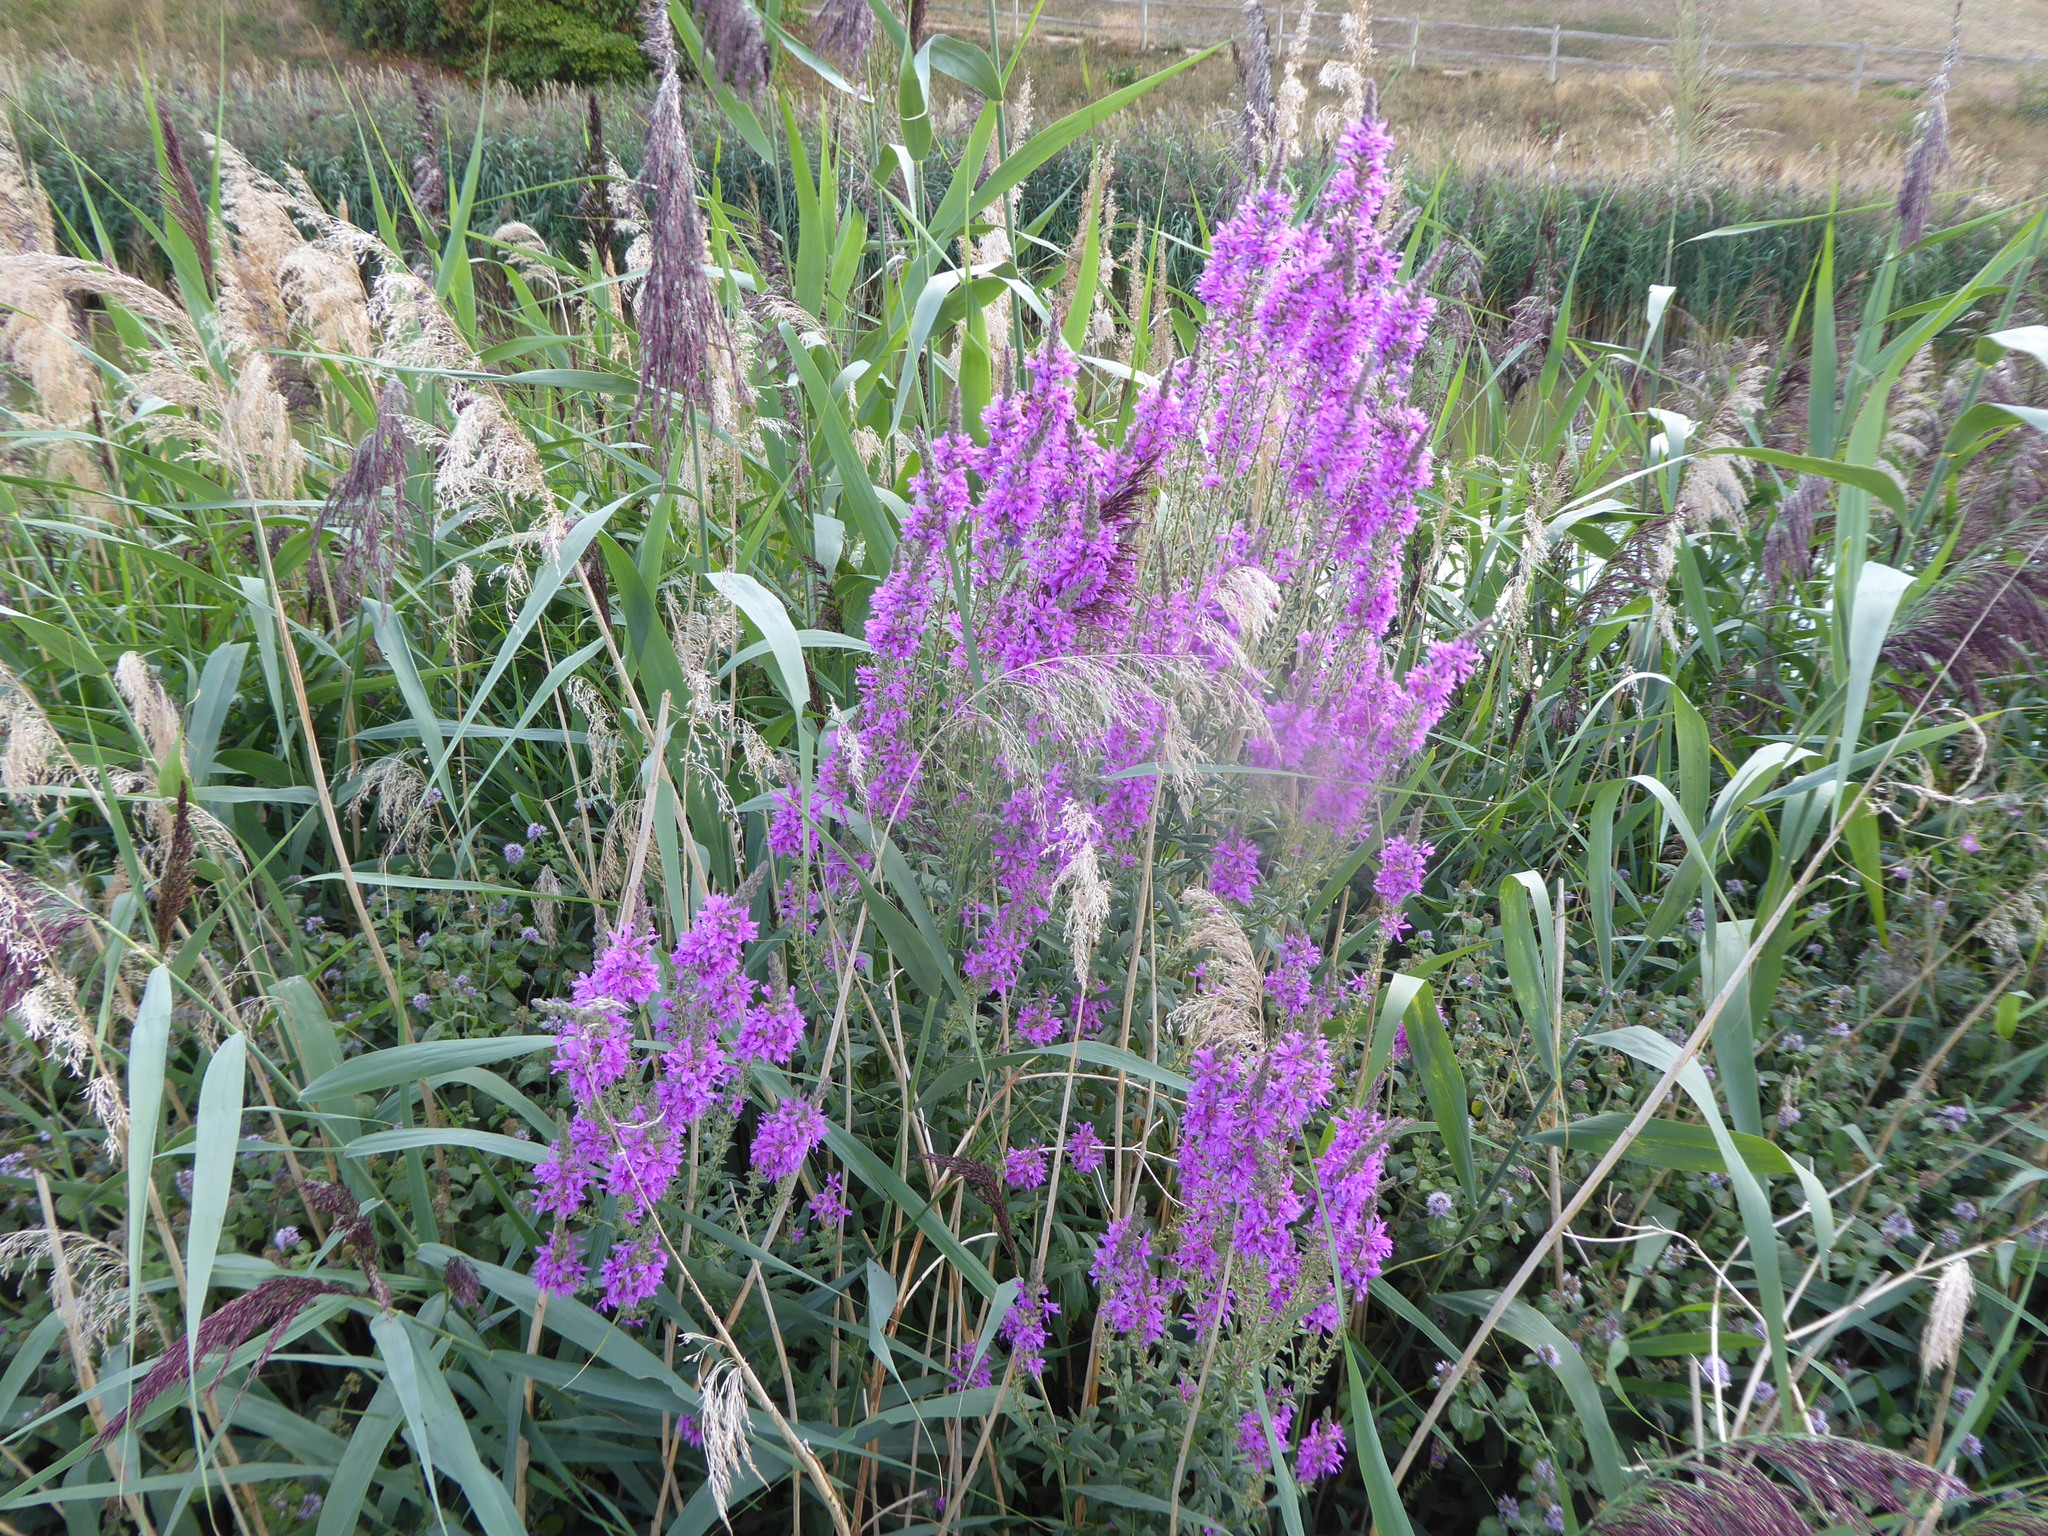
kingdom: Plantae
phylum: Tracheophyta
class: Magnoliopsida
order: Myrtales
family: Lythraceae
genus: Lythrum
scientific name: Lythrum salicaria
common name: Purple loosestrife
